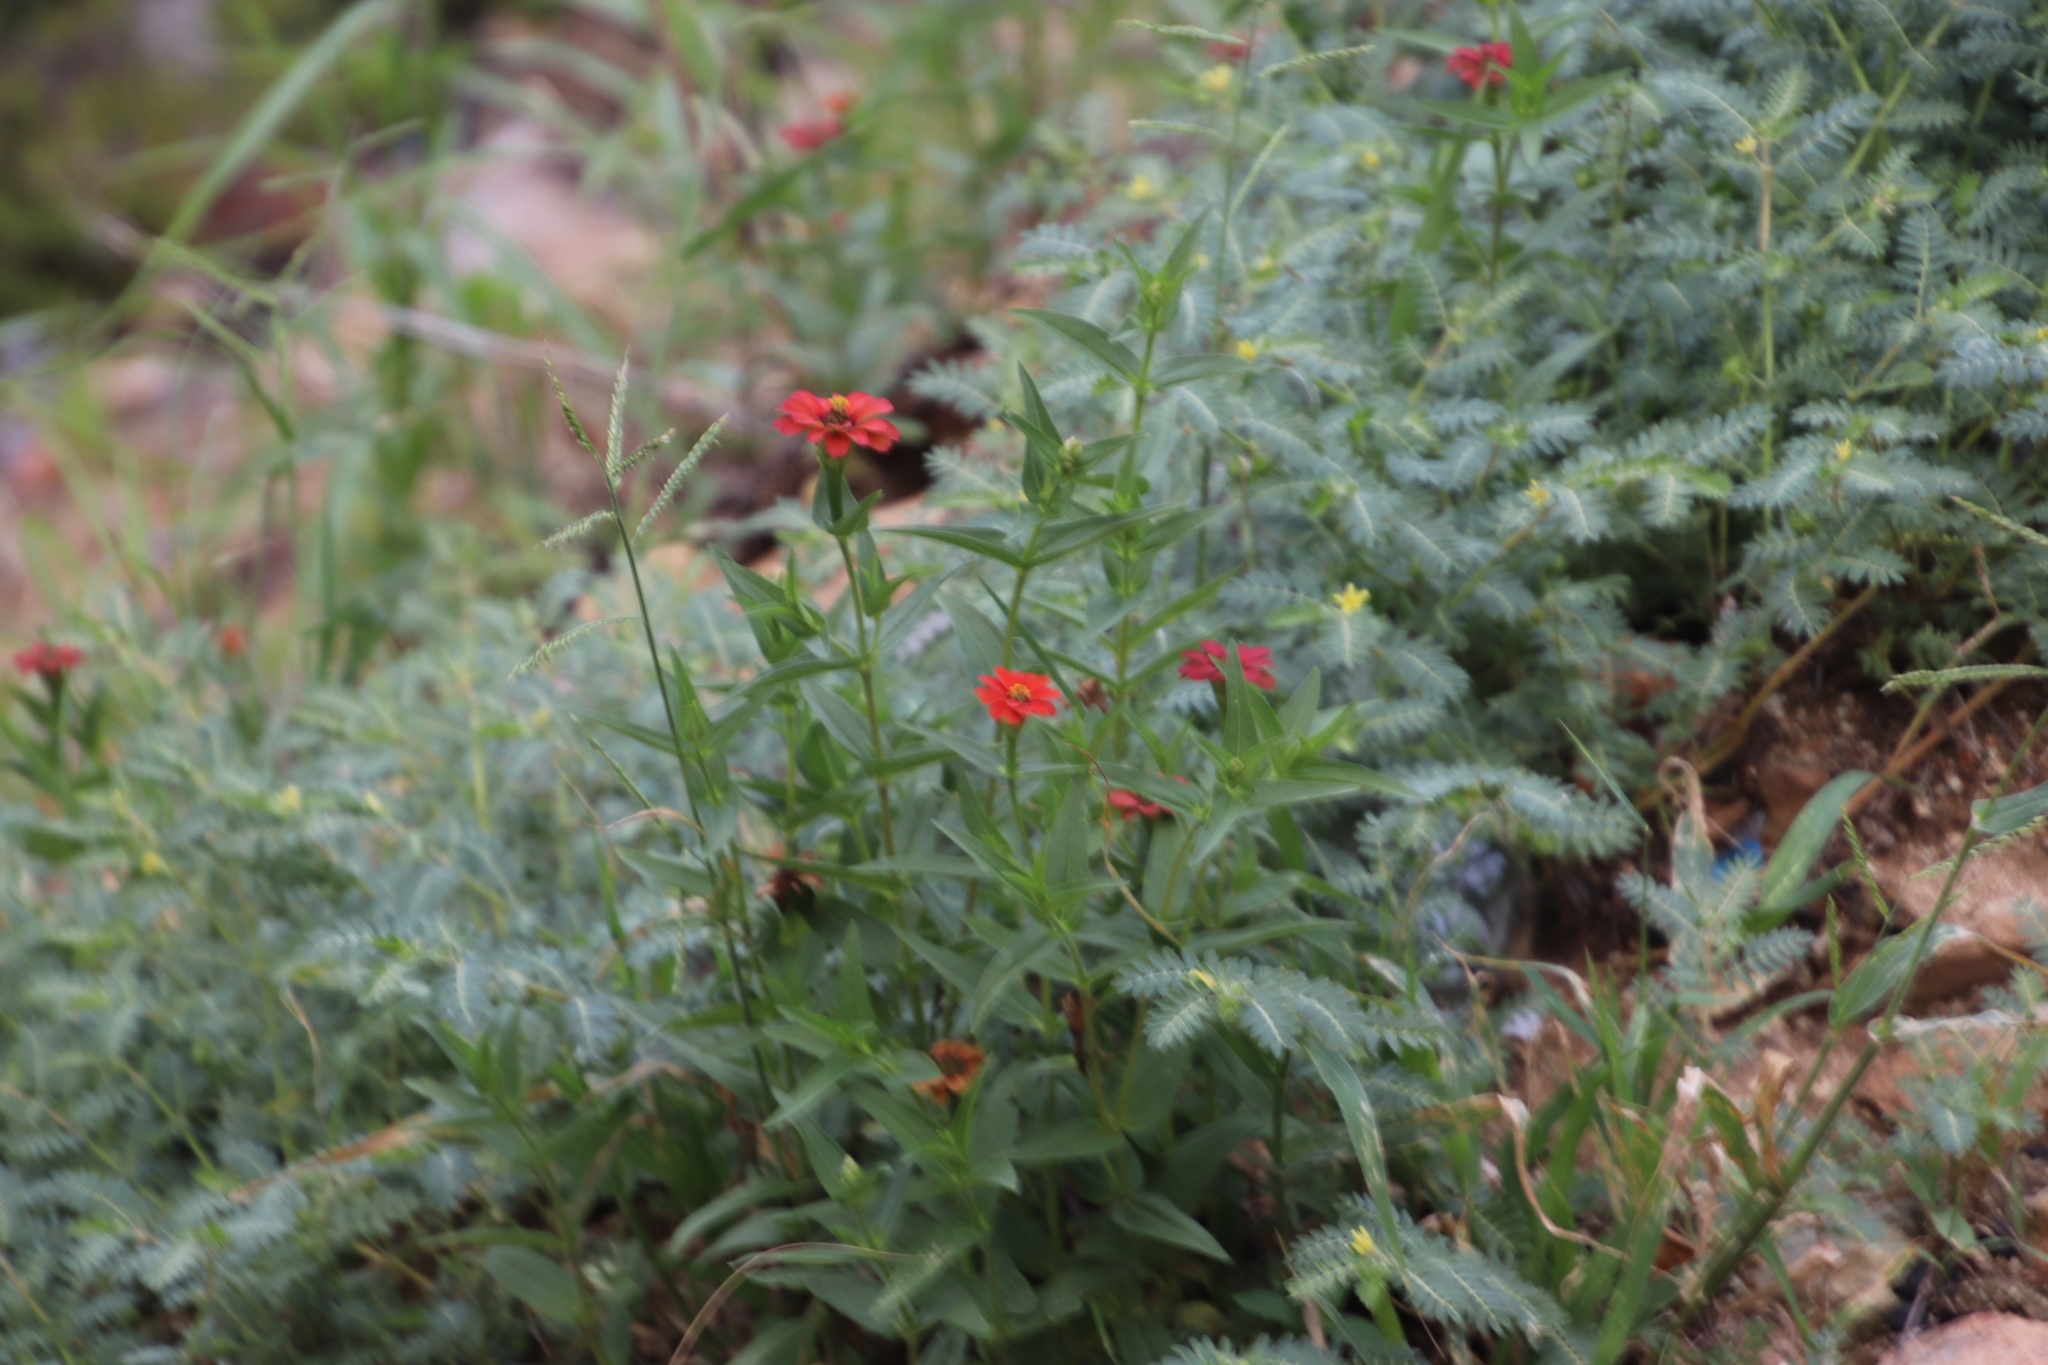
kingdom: Plantae
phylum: Tracheophyta
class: Magnoliopsida
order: Asterales
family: Asteraceae
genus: Zinnia
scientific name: Zinnia peruviana
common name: Peruvian zinnia
